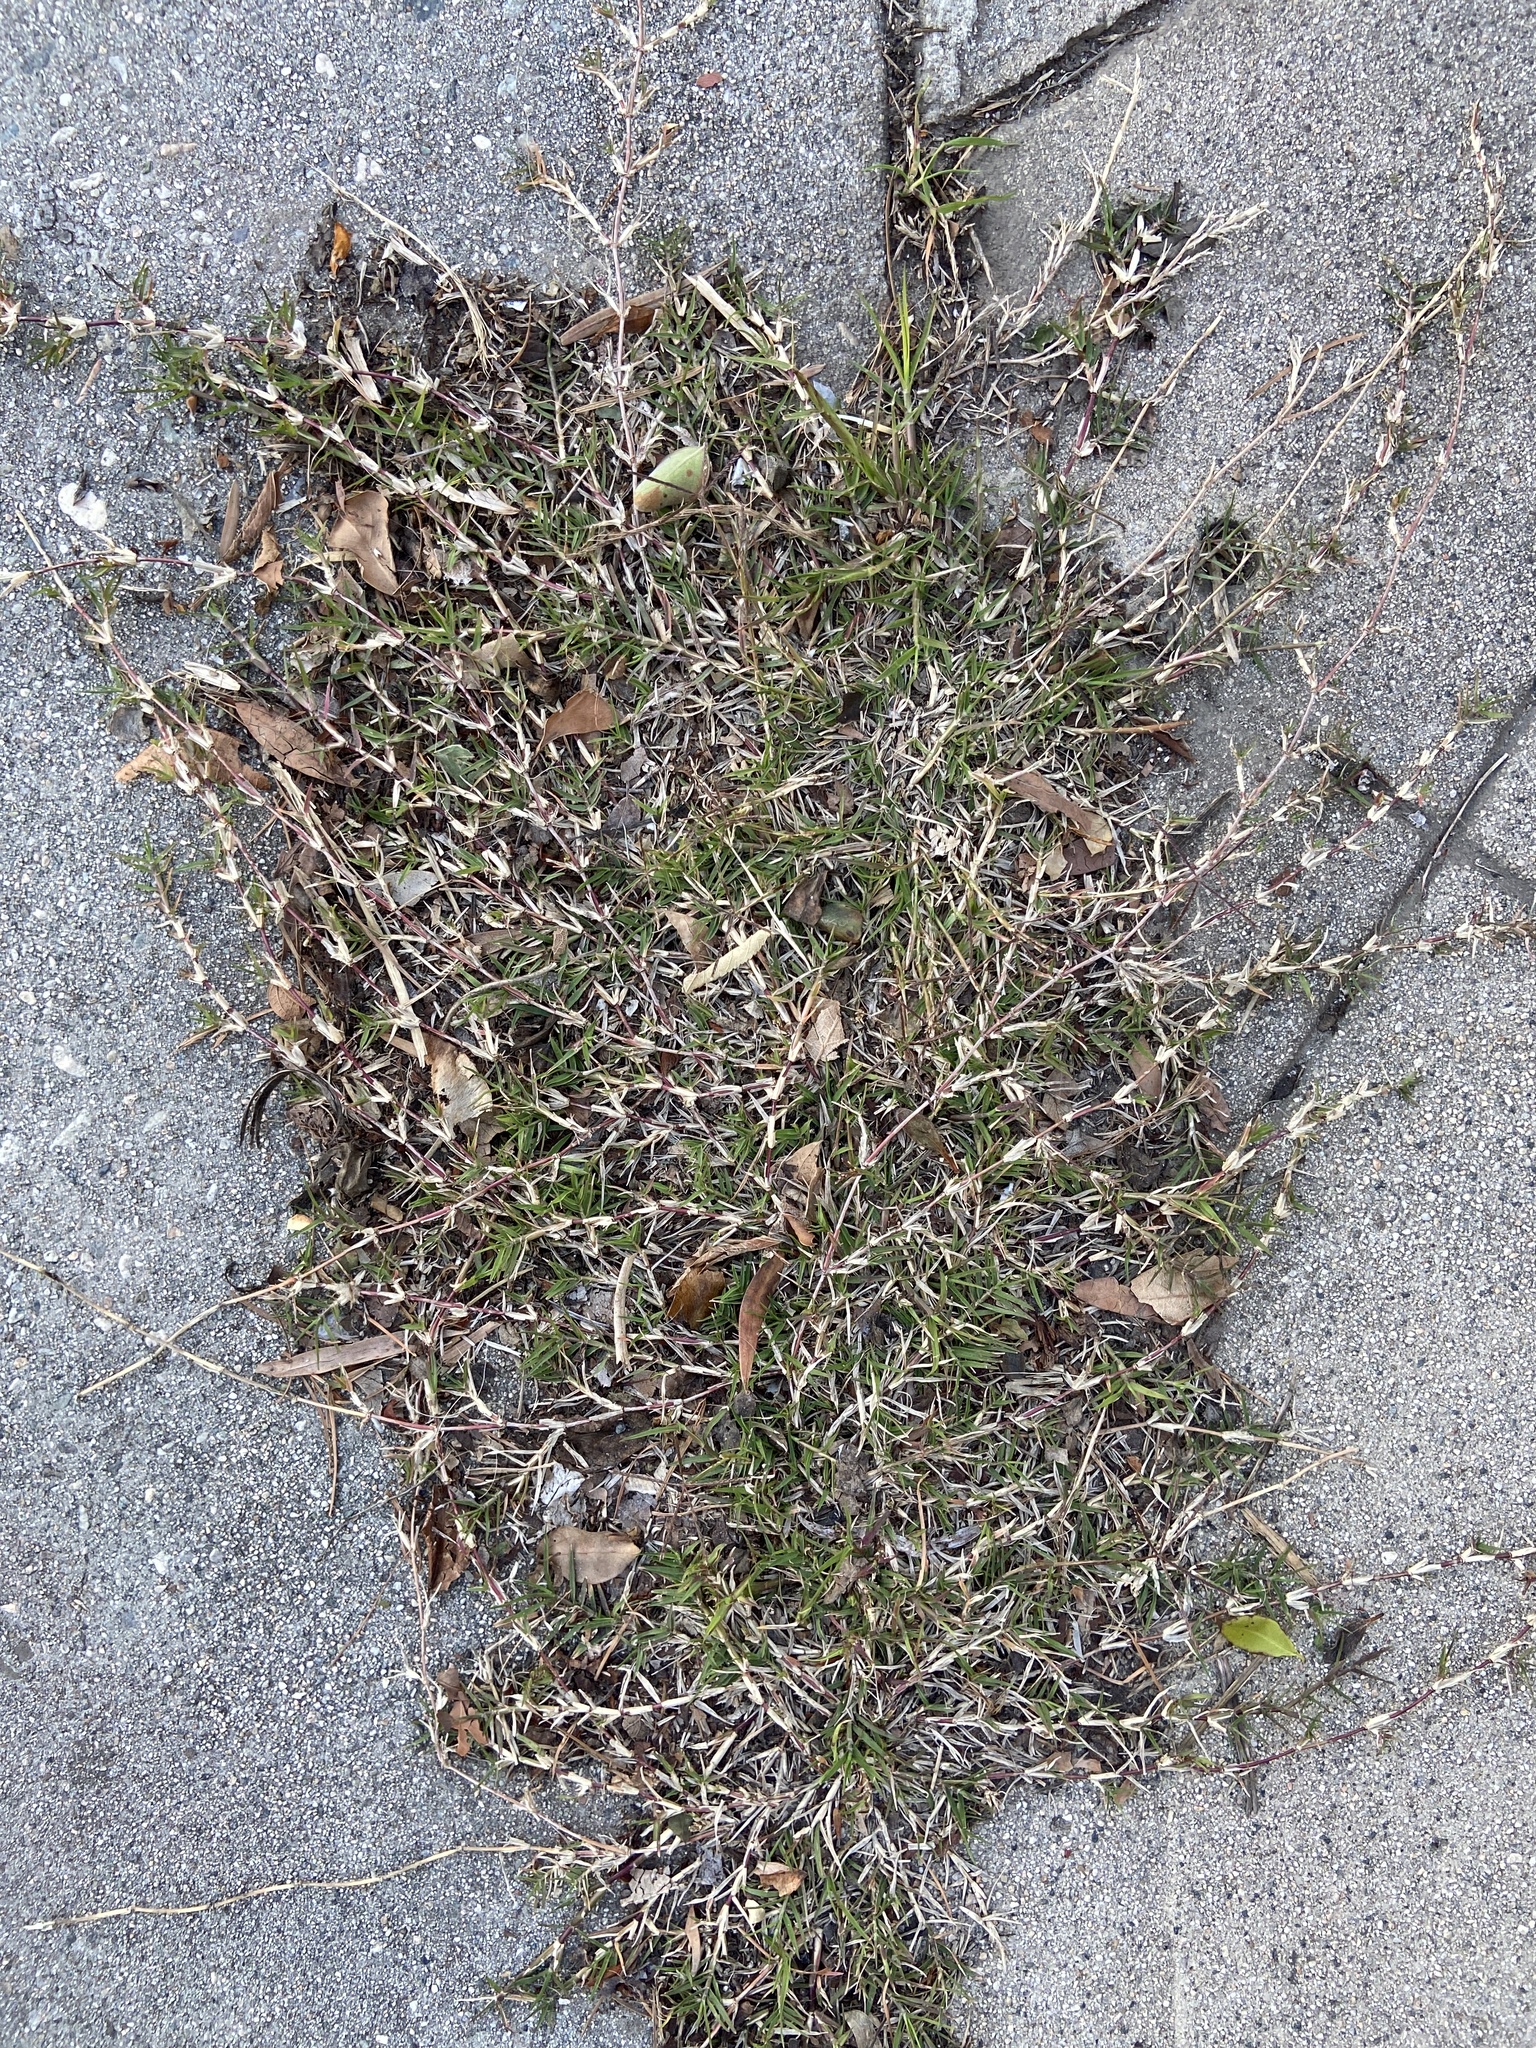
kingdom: Plantae
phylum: Tracheophyta
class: Liliopsida
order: Poales
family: Poaceae
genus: Cynodon
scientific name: Cynodon dactylon
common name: Bermuda grass
